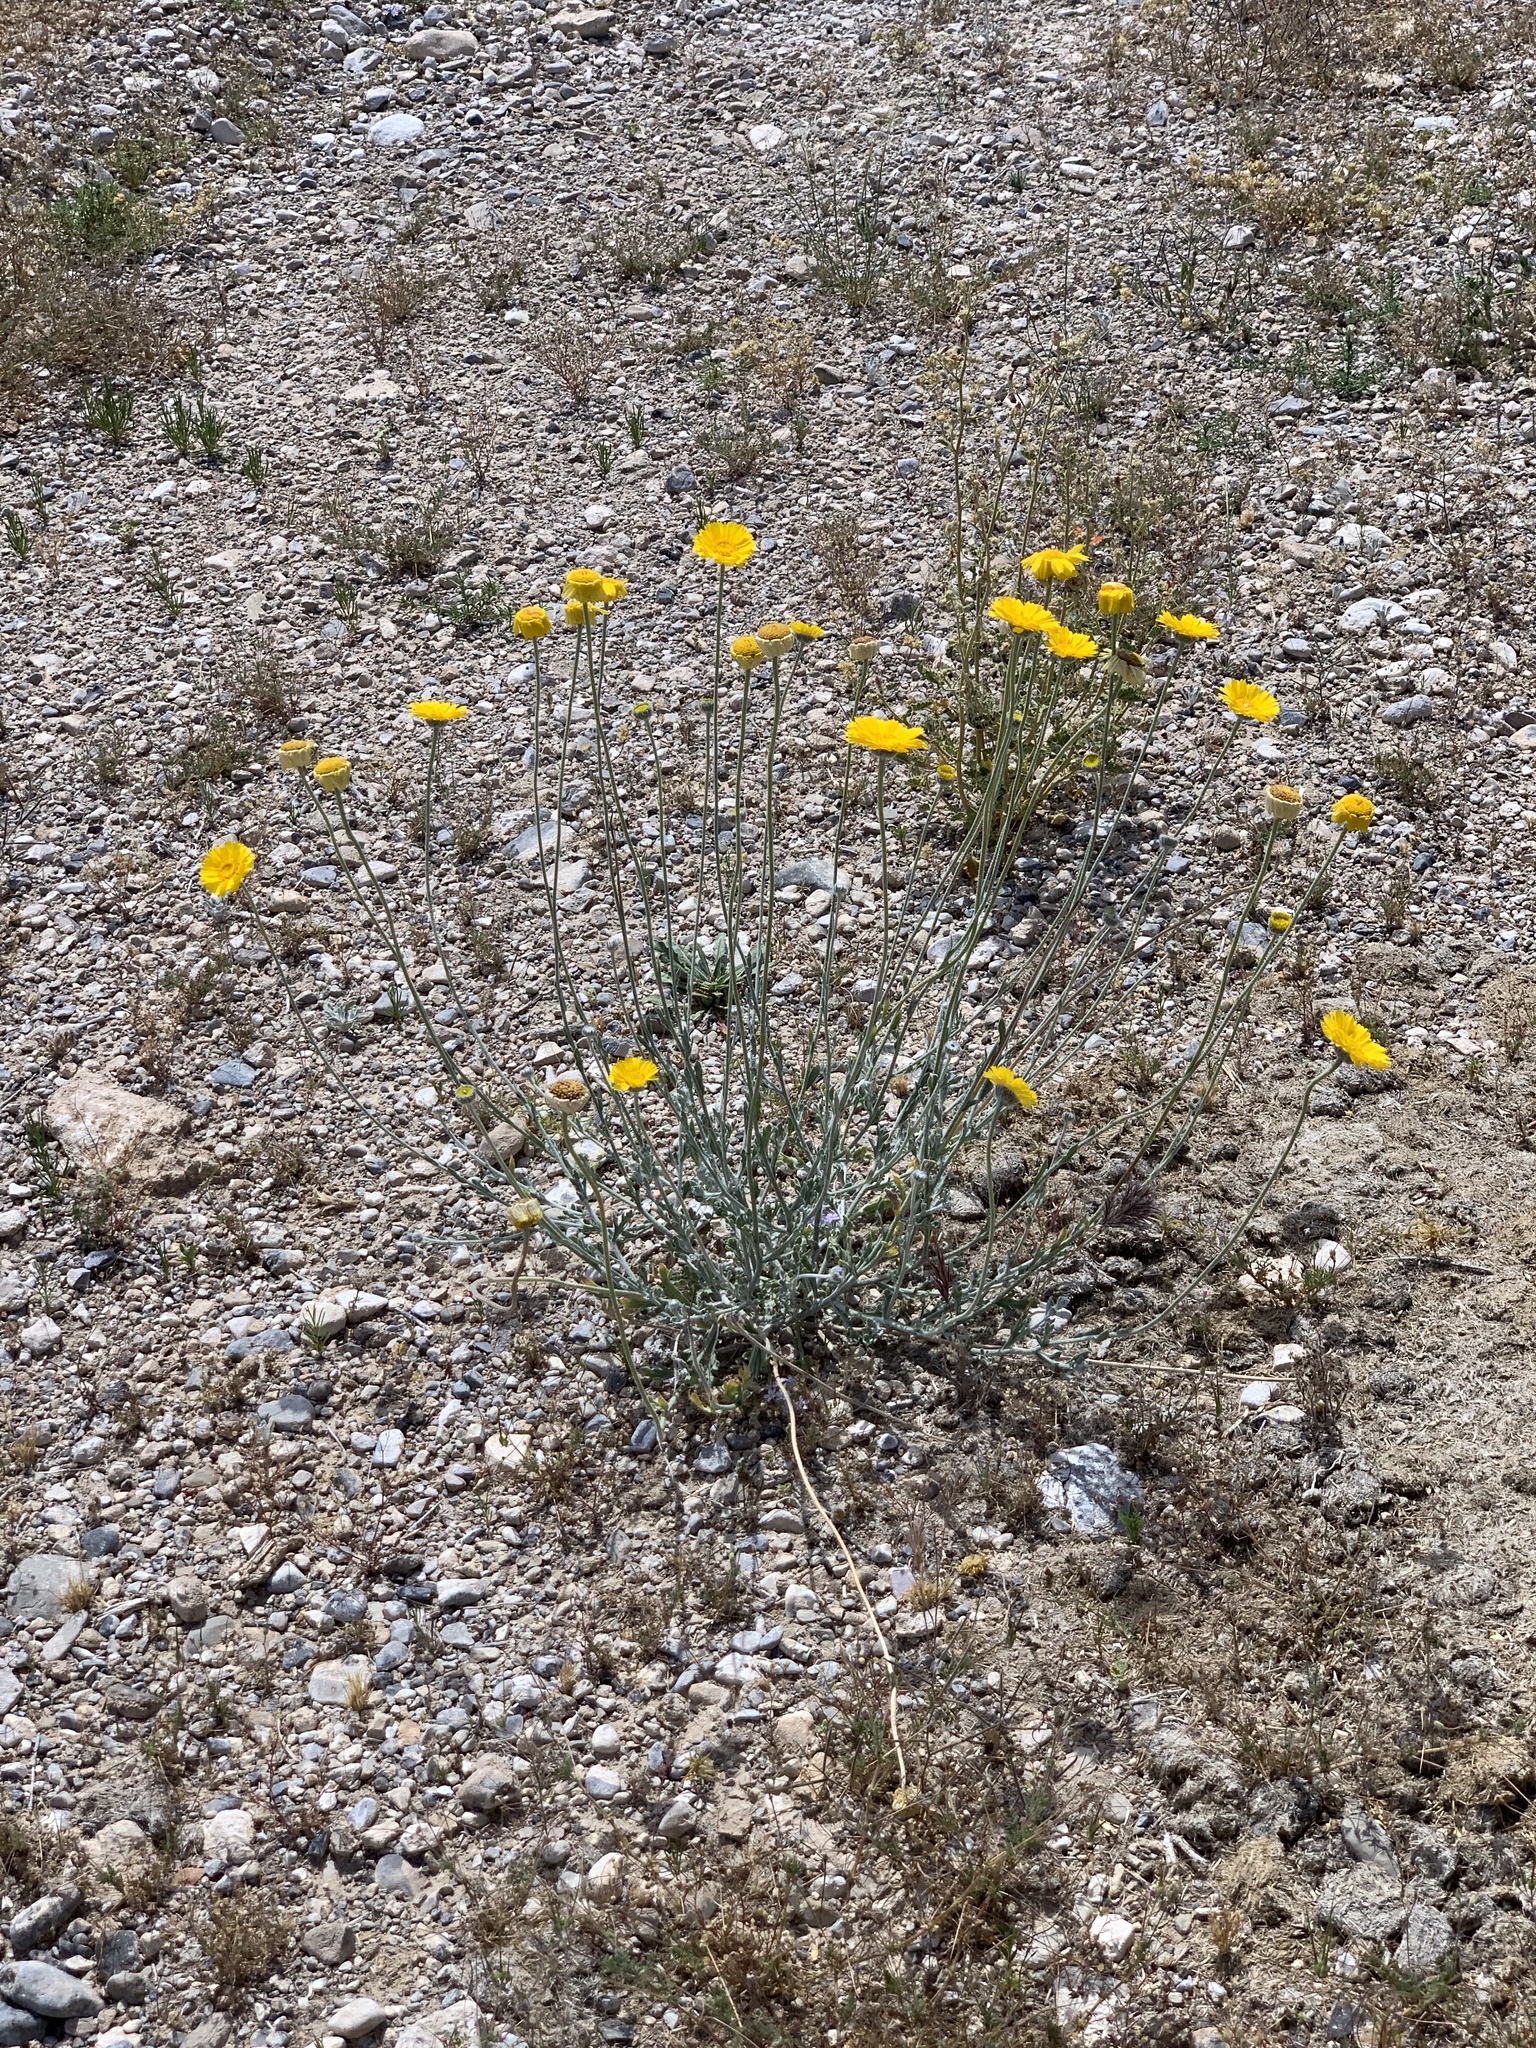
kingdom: Plantae
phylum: Tracheophyta
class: Magnoliopsida
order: Asterales
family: Asteraceae
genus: Baileya
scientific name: Baileya multiradiata
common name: Desert-marigold
